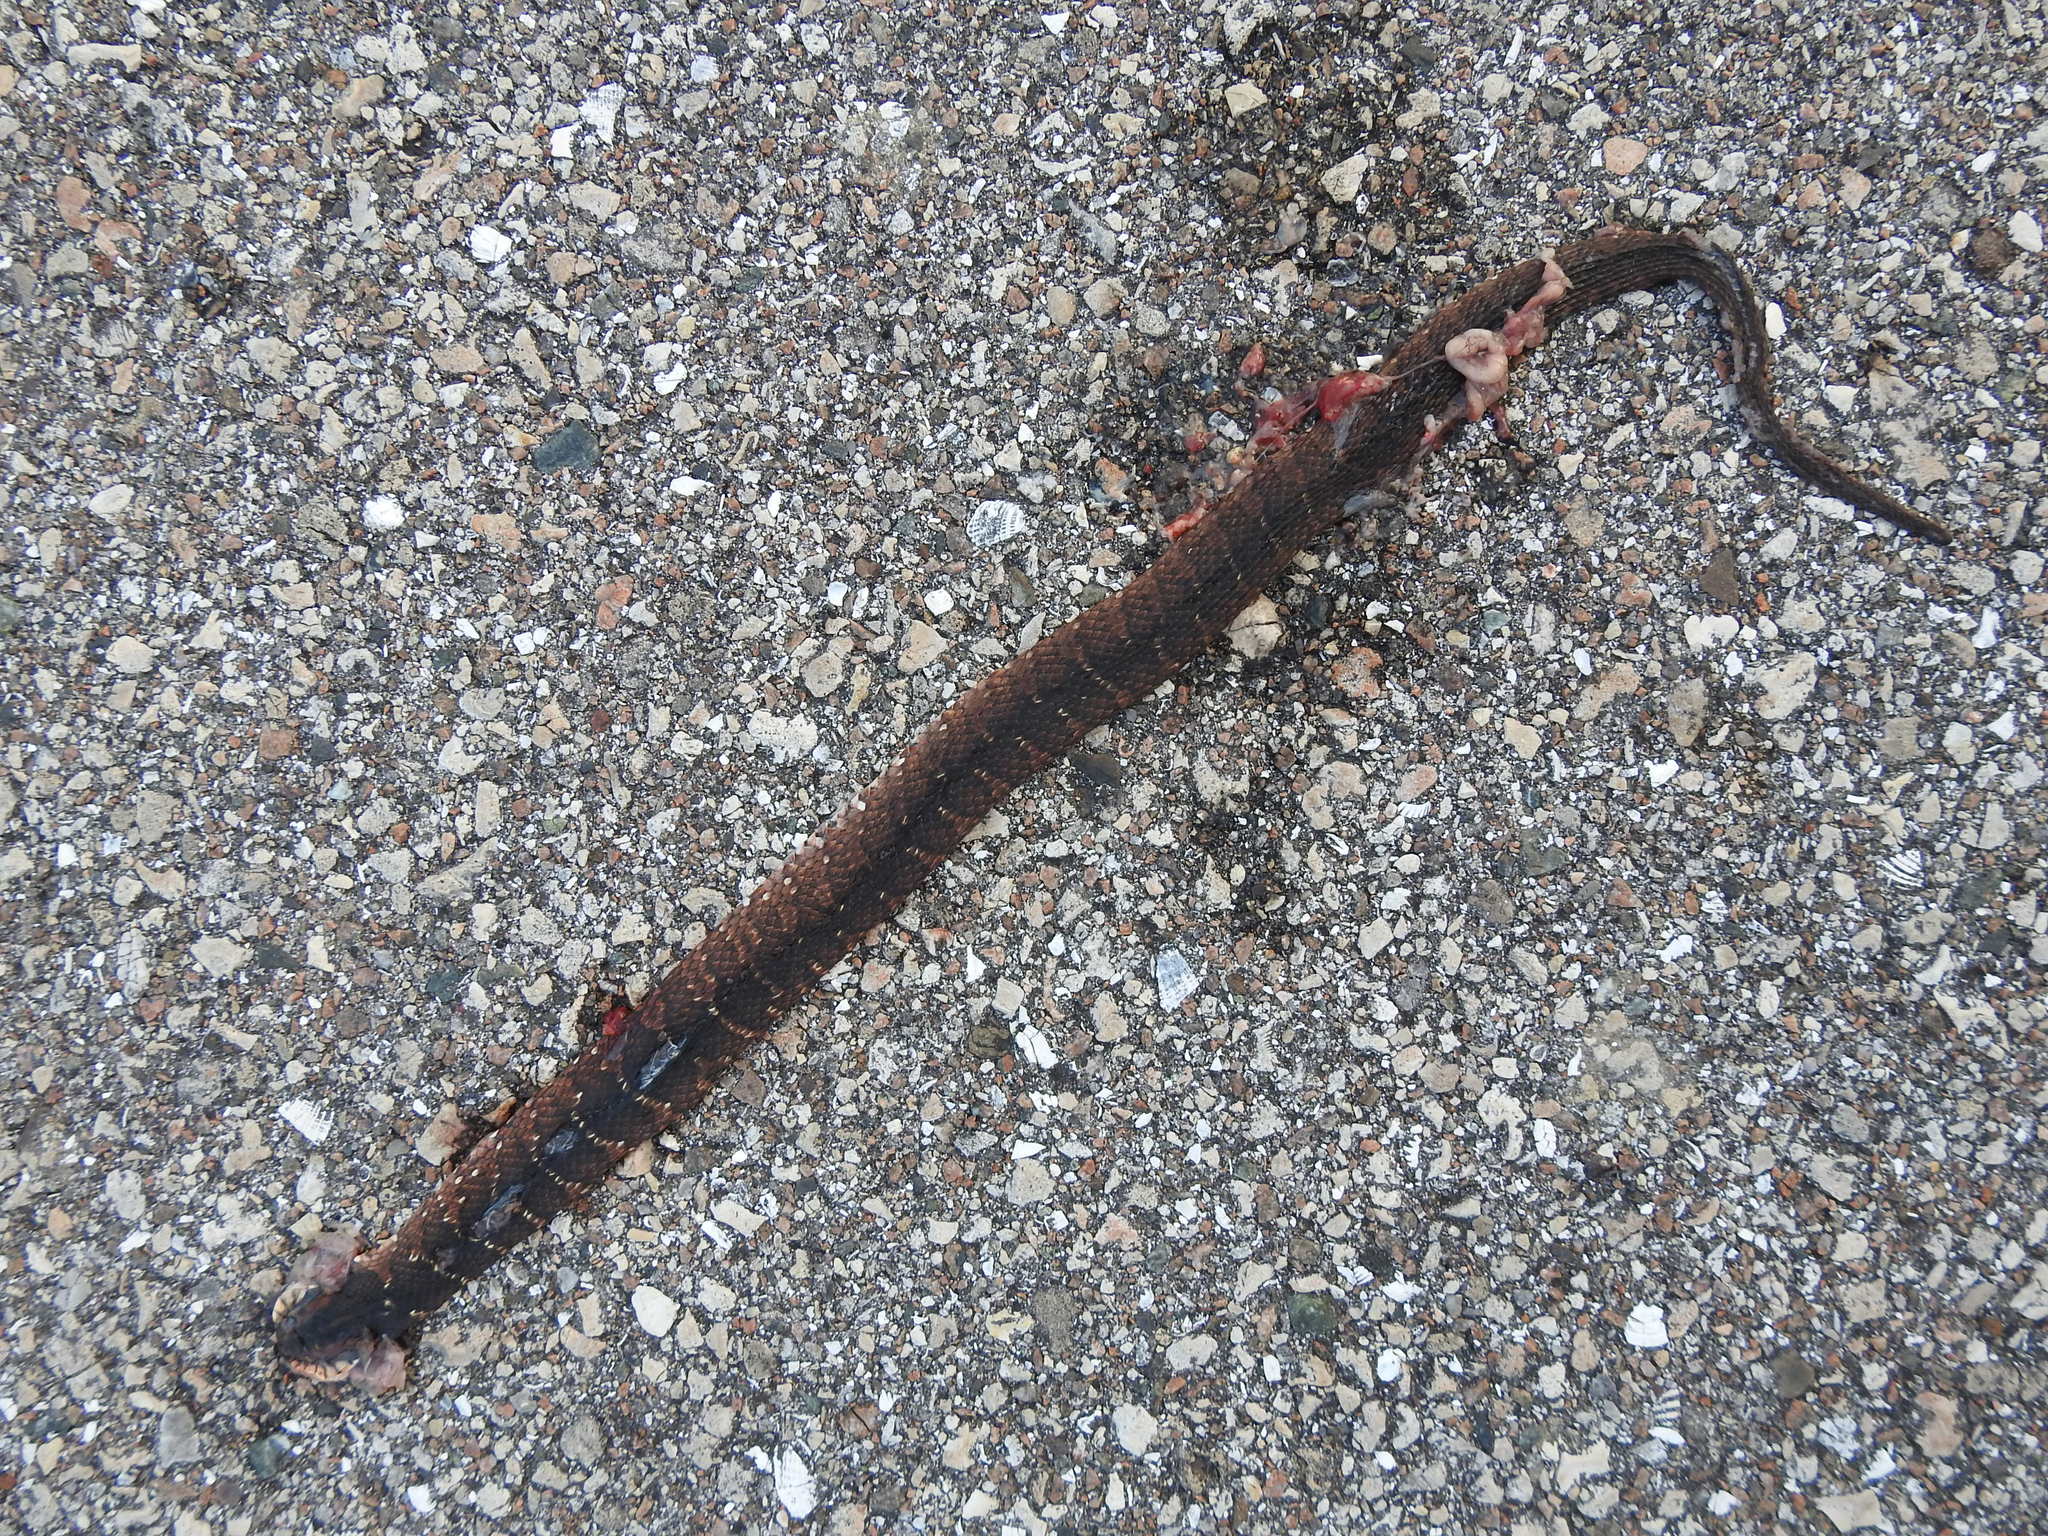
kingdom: Animalia
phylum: Chordata
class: Squamata
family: Colubridae
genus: Nerodia
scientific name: Nerodia fasciata
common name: Southern water snake
